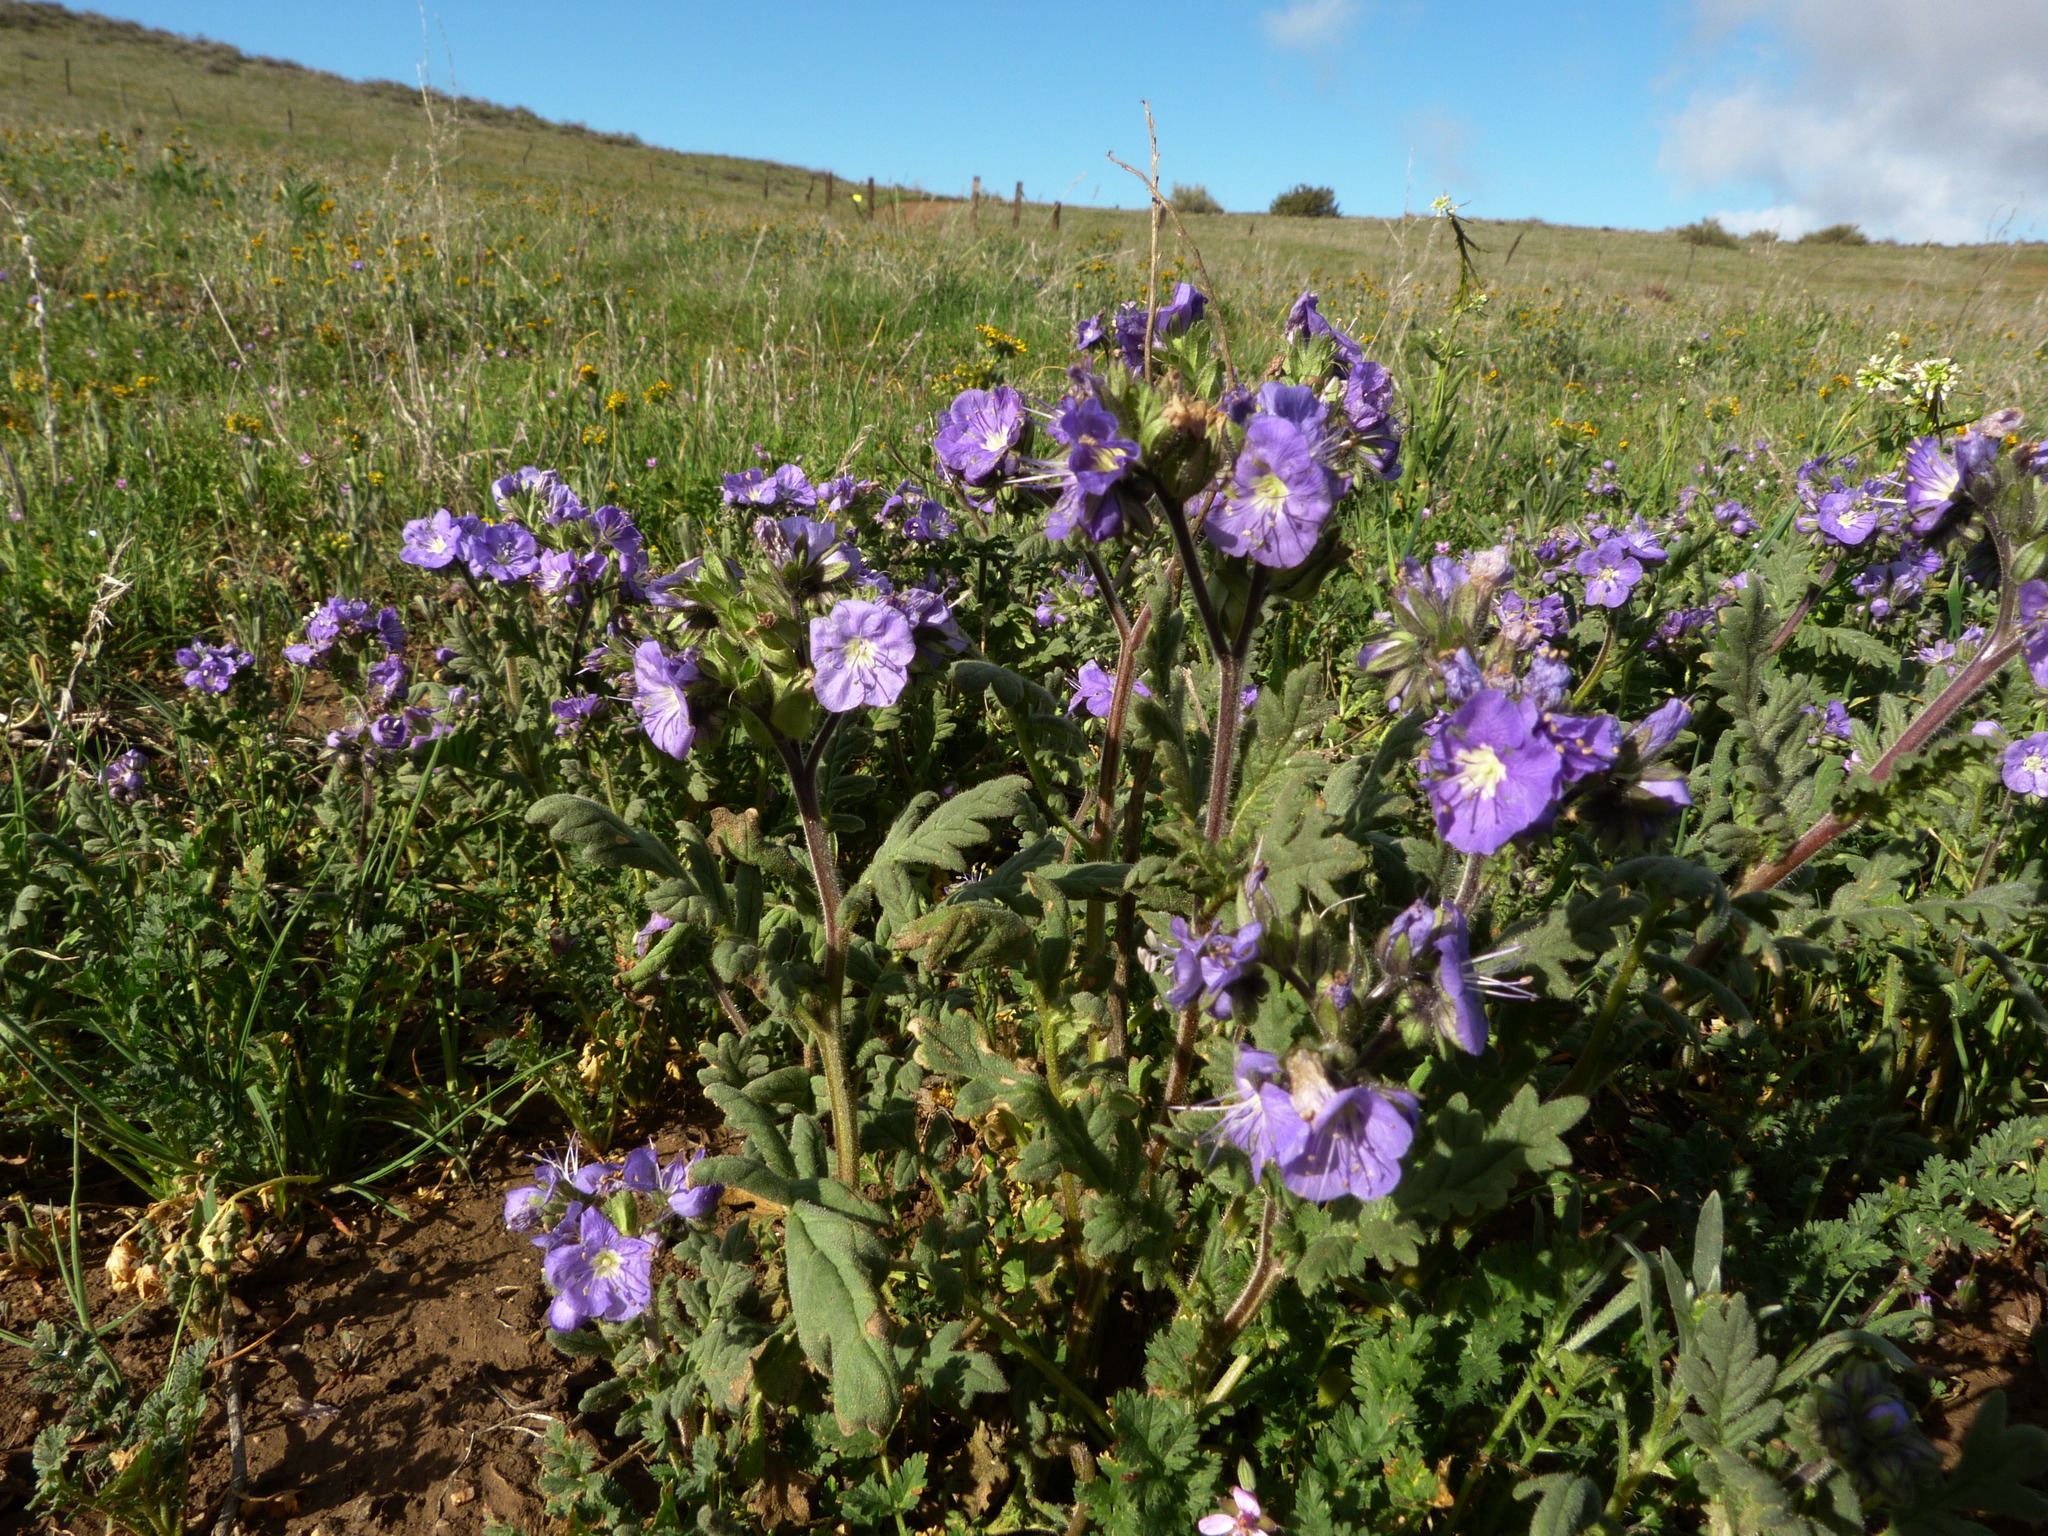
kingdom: Plantae
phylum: Tracheophyta
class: Magnoliopsida
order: Boraginales
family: Hydrophyllaceae
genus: Phacelia
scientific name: Phacelia ciliata
